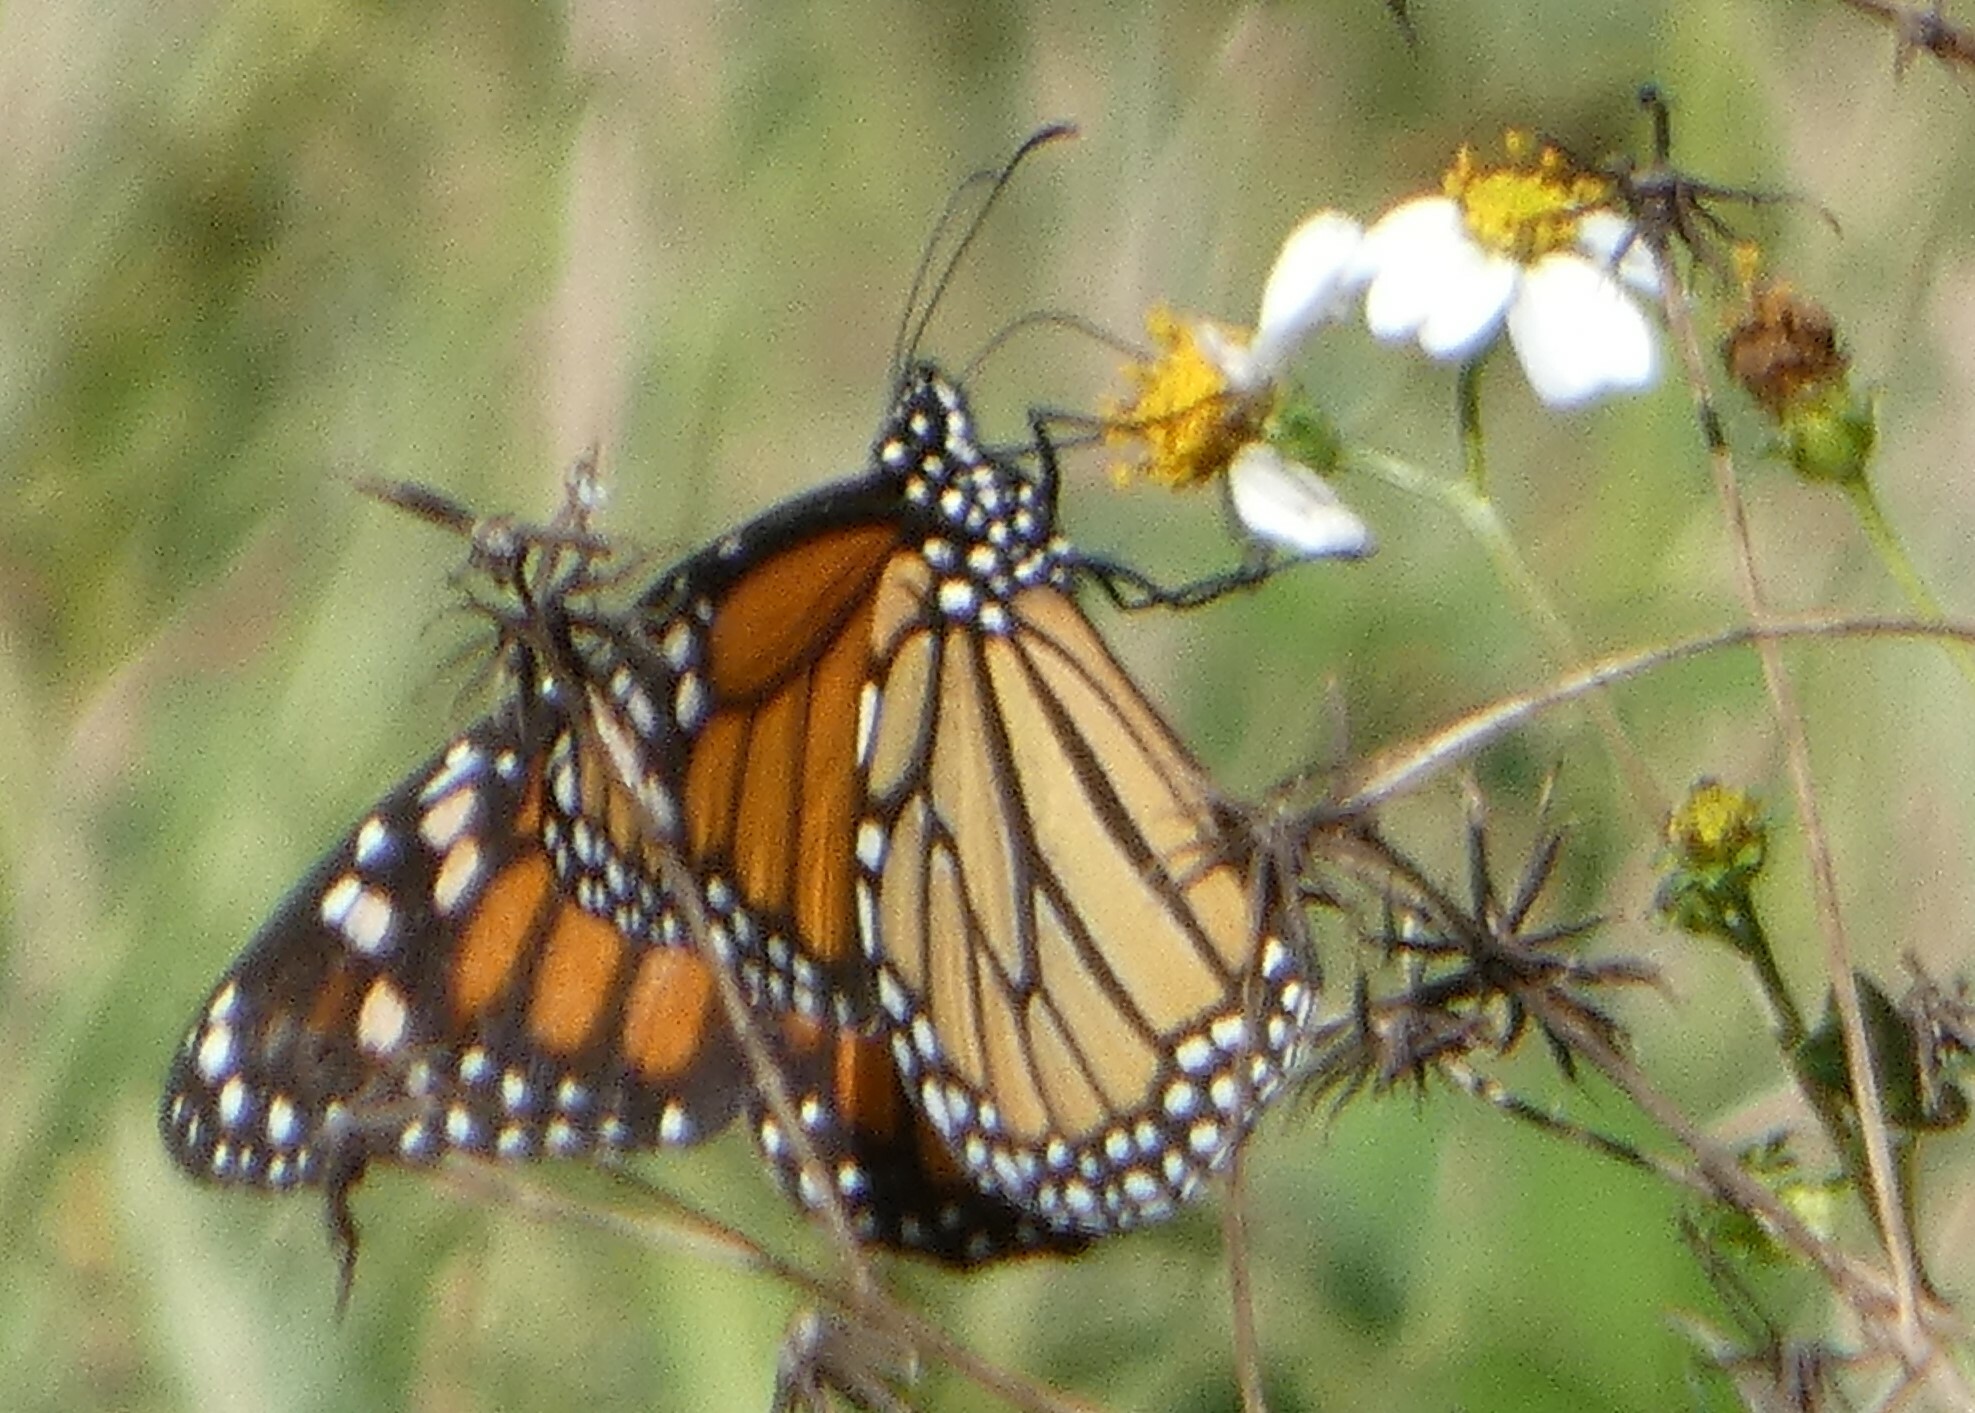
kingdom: Animalia
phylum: Arthropoda
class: Insecta
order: Lepidoptera
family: Nymphalidae
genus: Danaus
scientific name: Danaus plexippus
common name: Monarch
